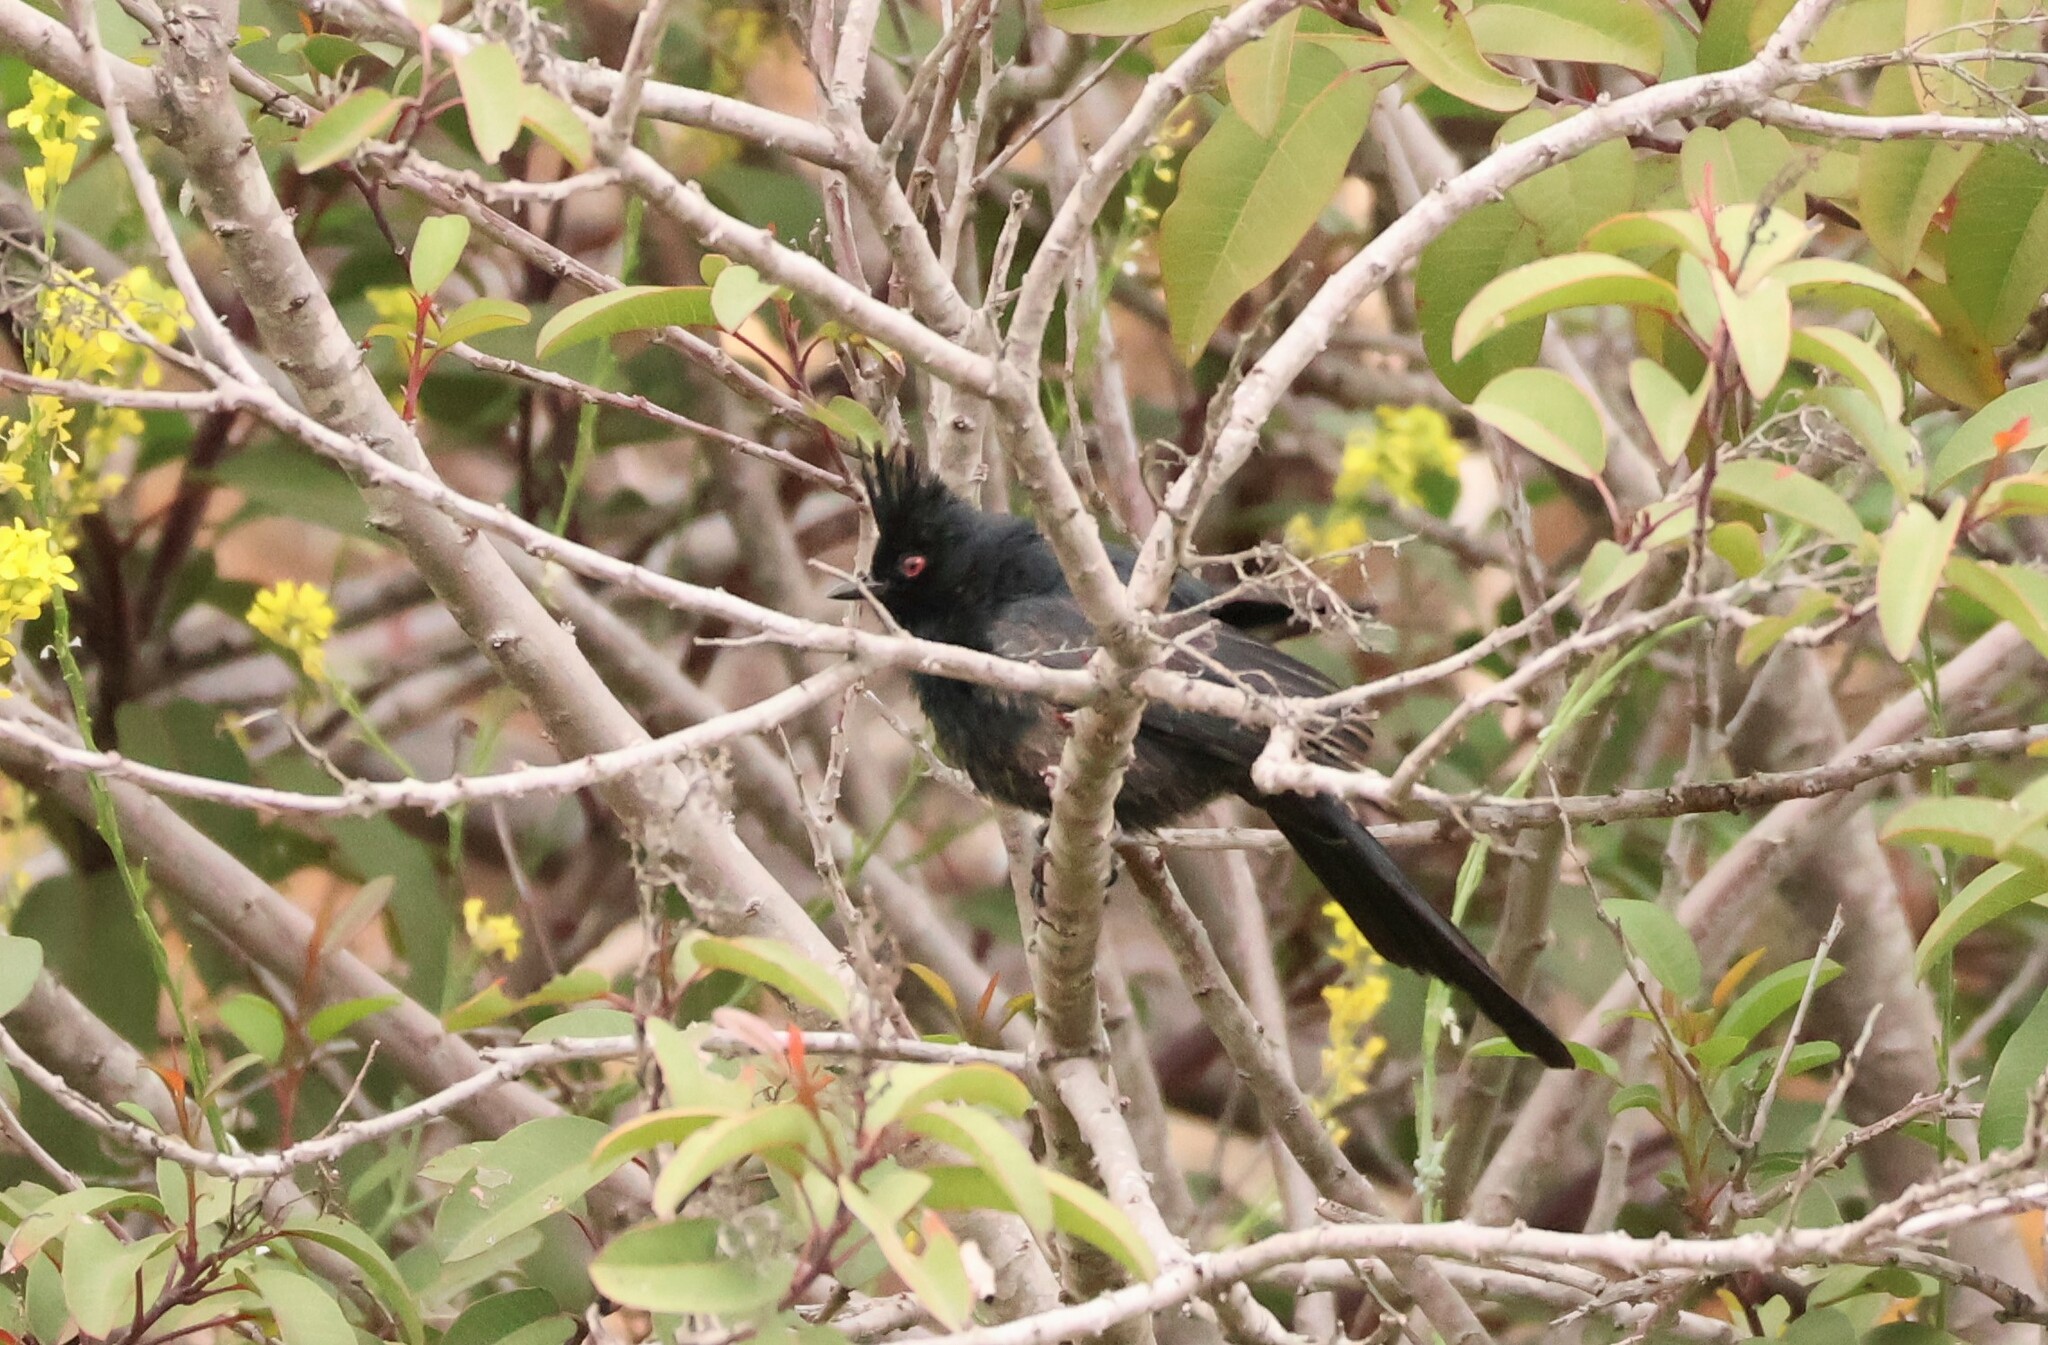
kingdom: Animalia
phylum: Chordata
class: Aves
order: Passeriformes
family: Ptilogonatidae
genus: Phainopepla
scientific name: Phainopepla nitens
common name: Phainopepla
